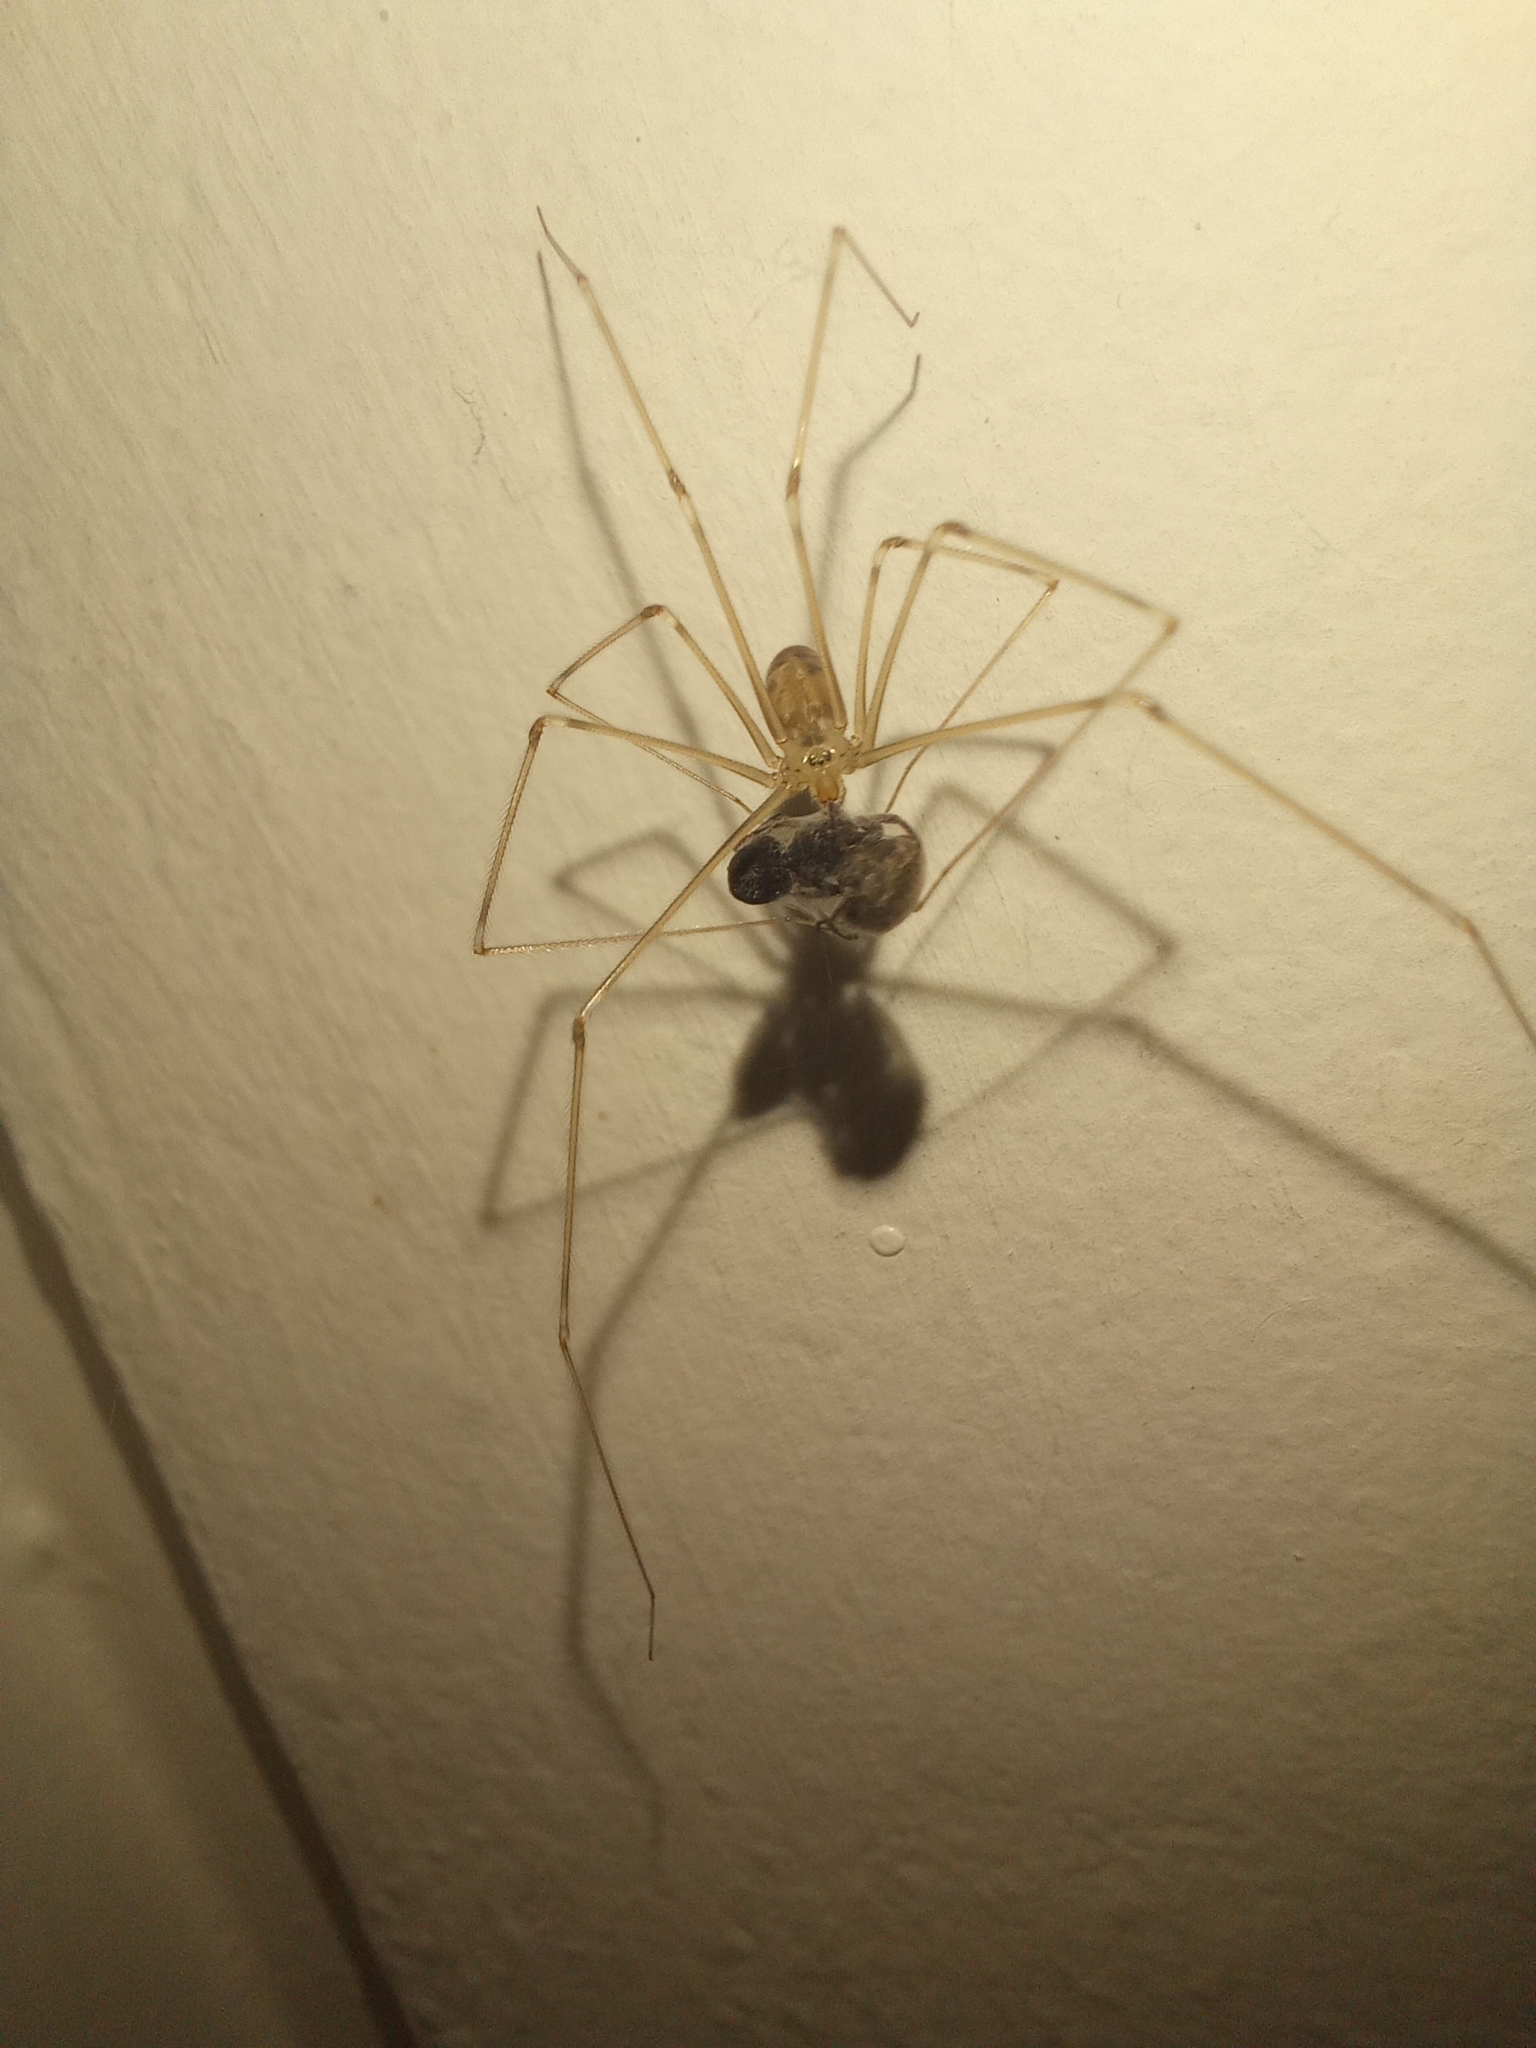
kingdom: Animalia
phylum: Arthropoda
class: Arachnida
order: Araneae
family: Pholcidae
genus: Pholcus
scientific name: Pholcus phalangioides
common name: Longbodied cellar spider
